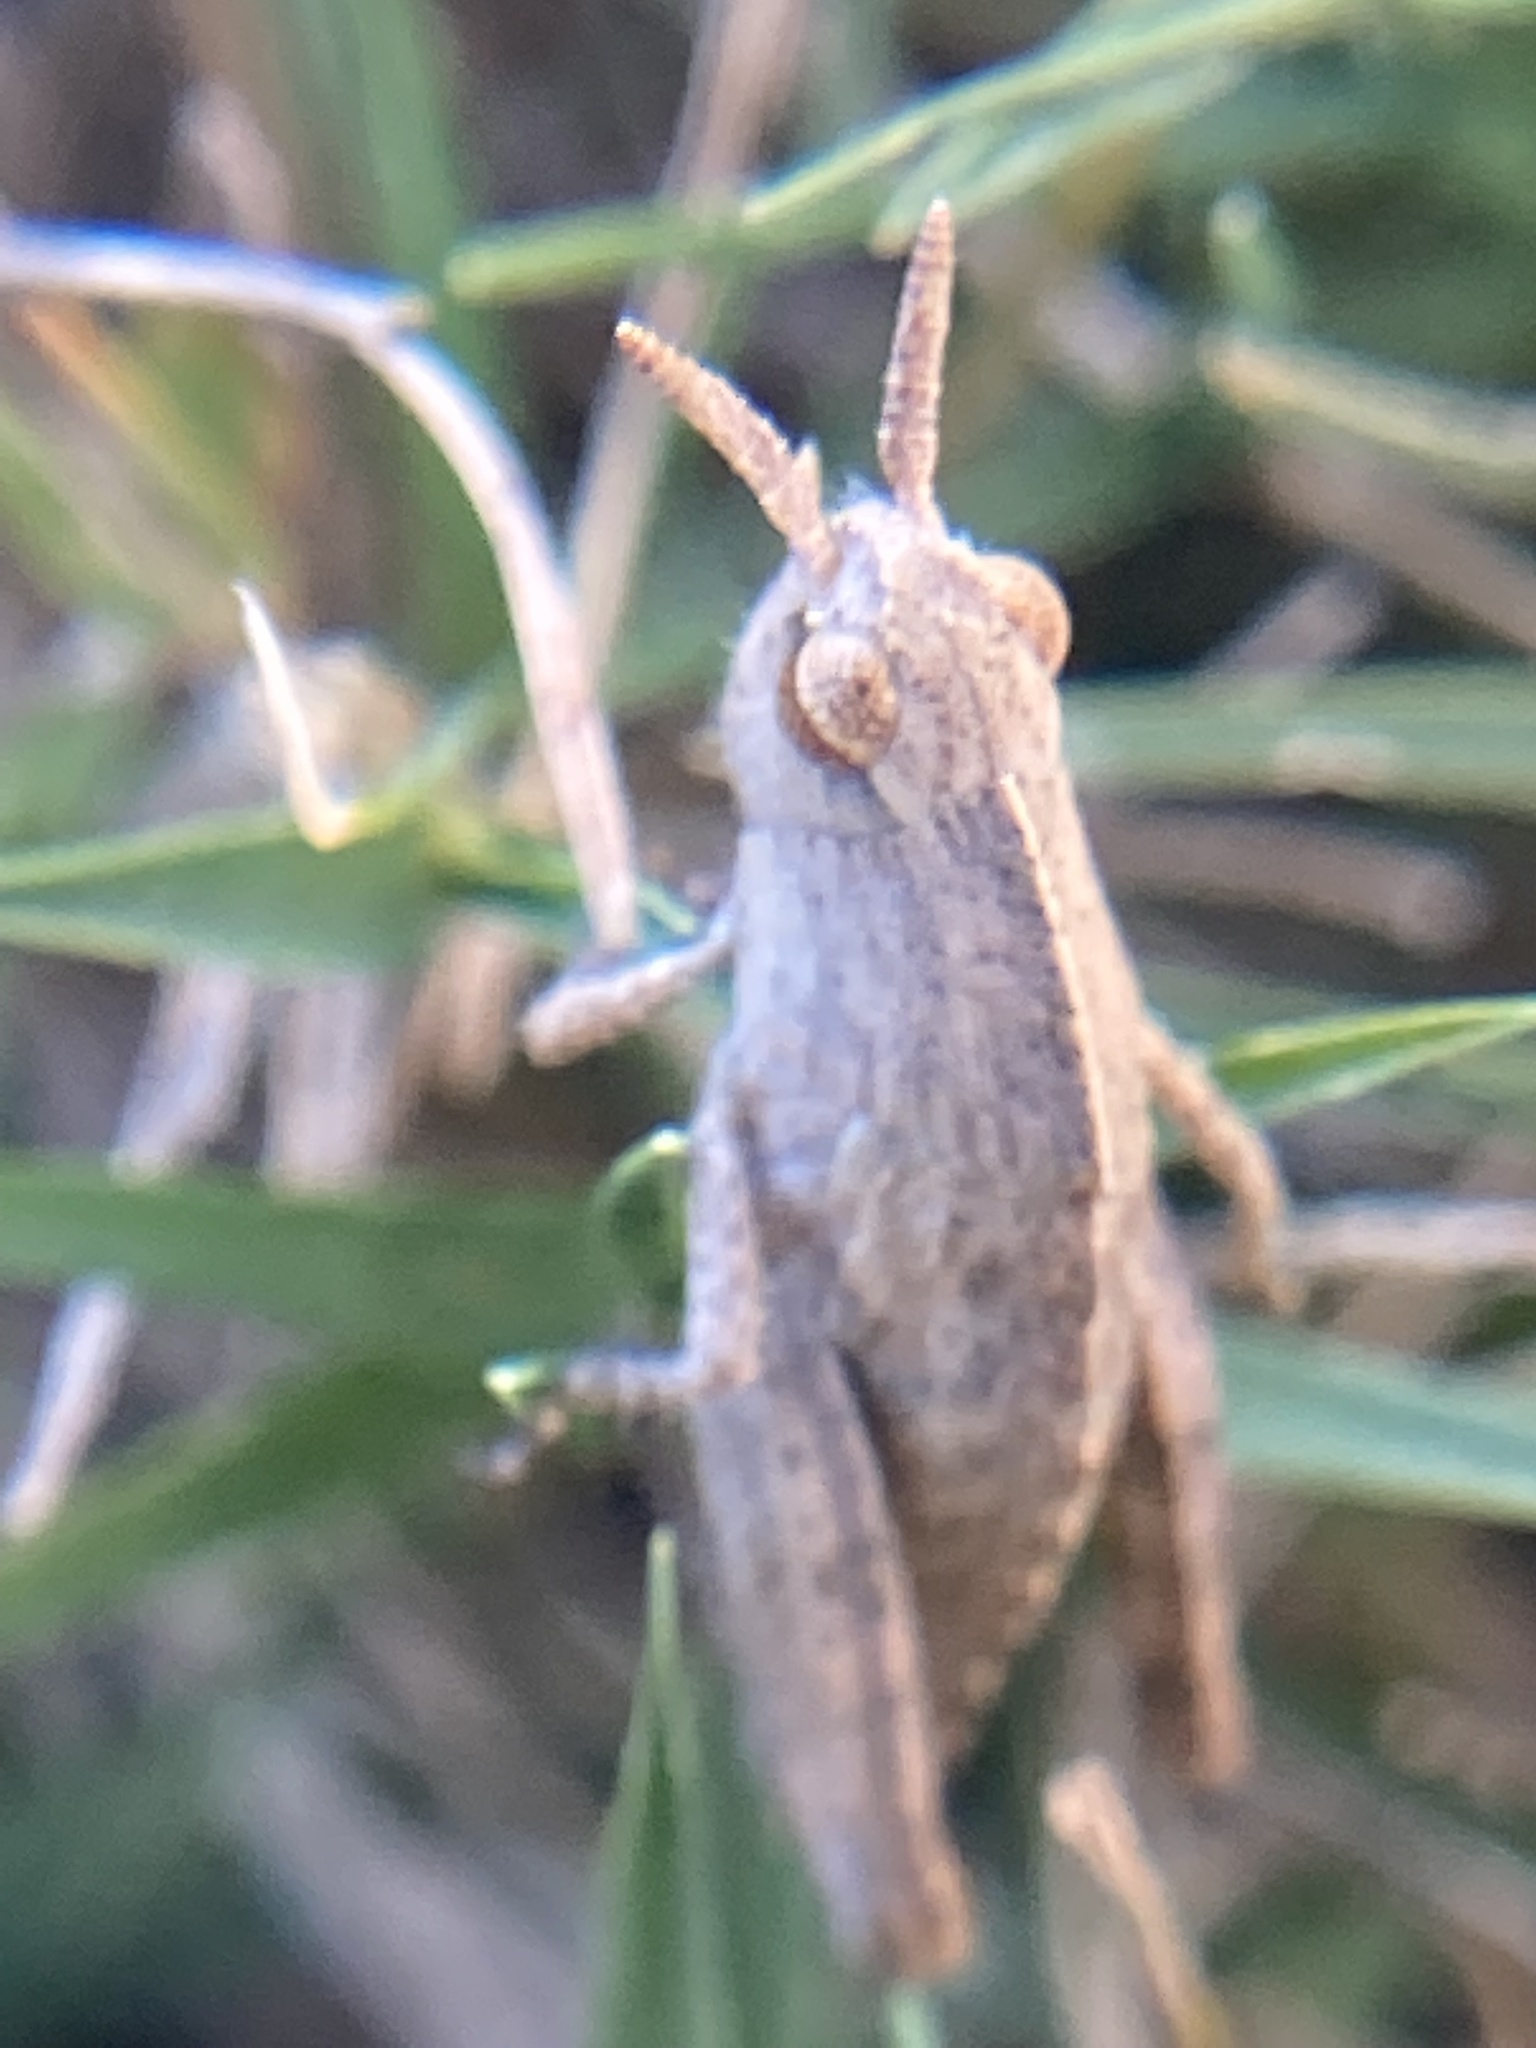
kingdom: Animalia
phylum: Arthropoda
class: Insecta
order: Orthoptera
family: Acrididae
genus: Chortophaga
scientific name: Chortophaga viridifasciata
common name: Green-striped grasshopper
